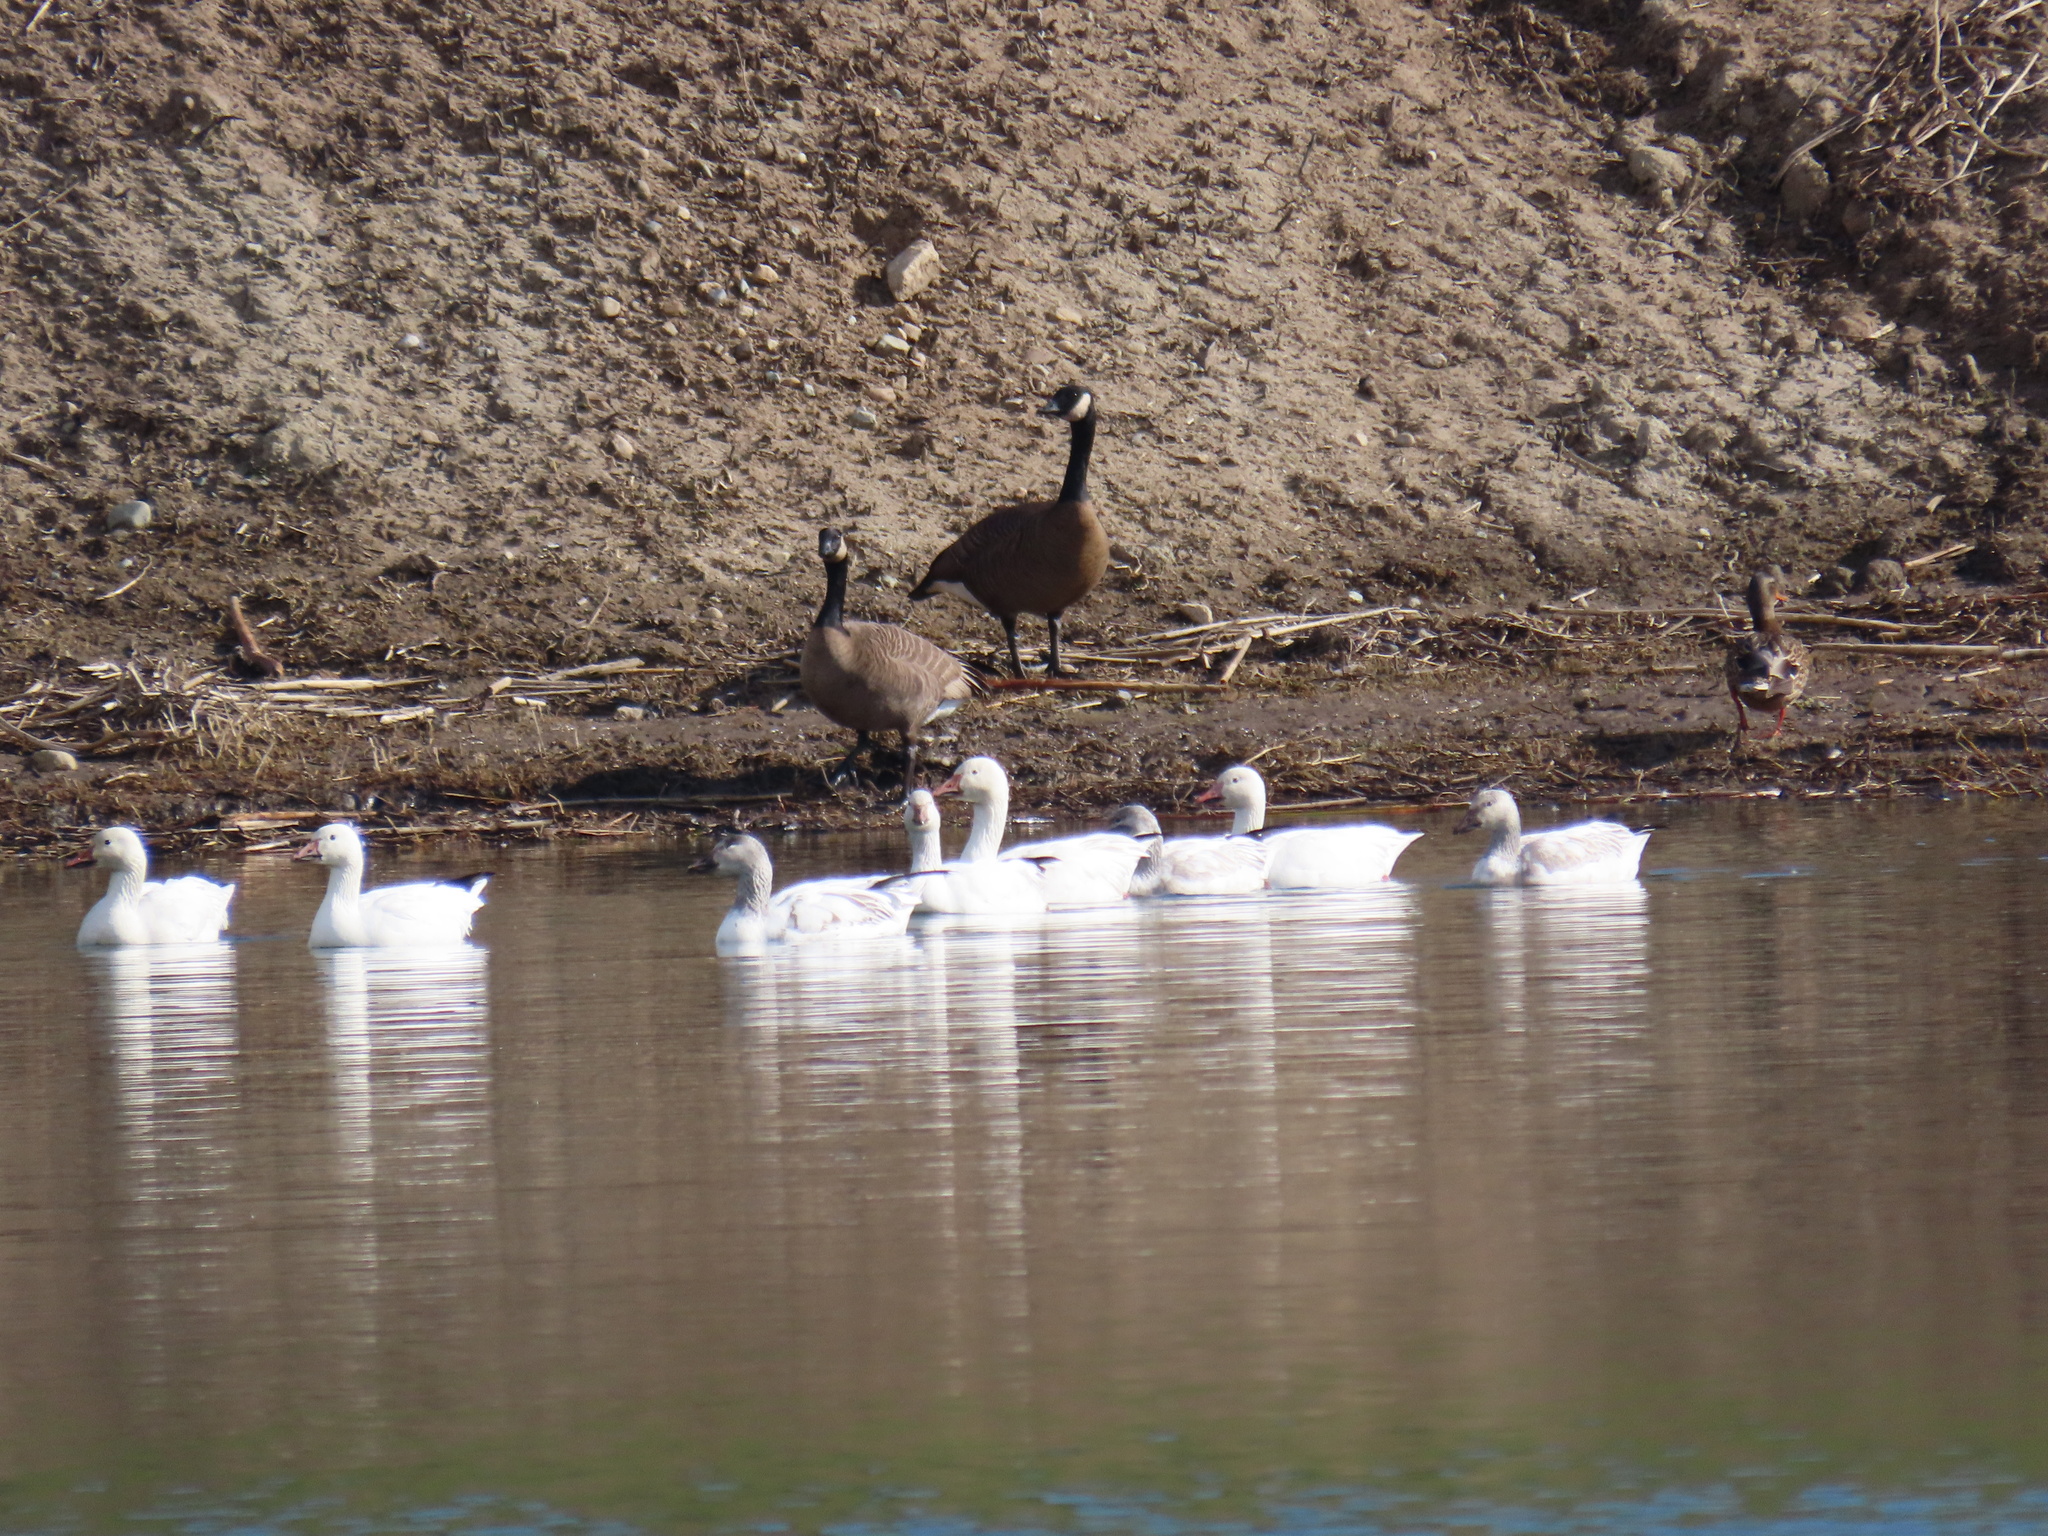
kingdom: Animalia
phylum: Chordata
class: Aves
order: Anseriformes
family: Anatidae
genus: Anser
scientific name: Anser caerulescens
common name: Snow goose
